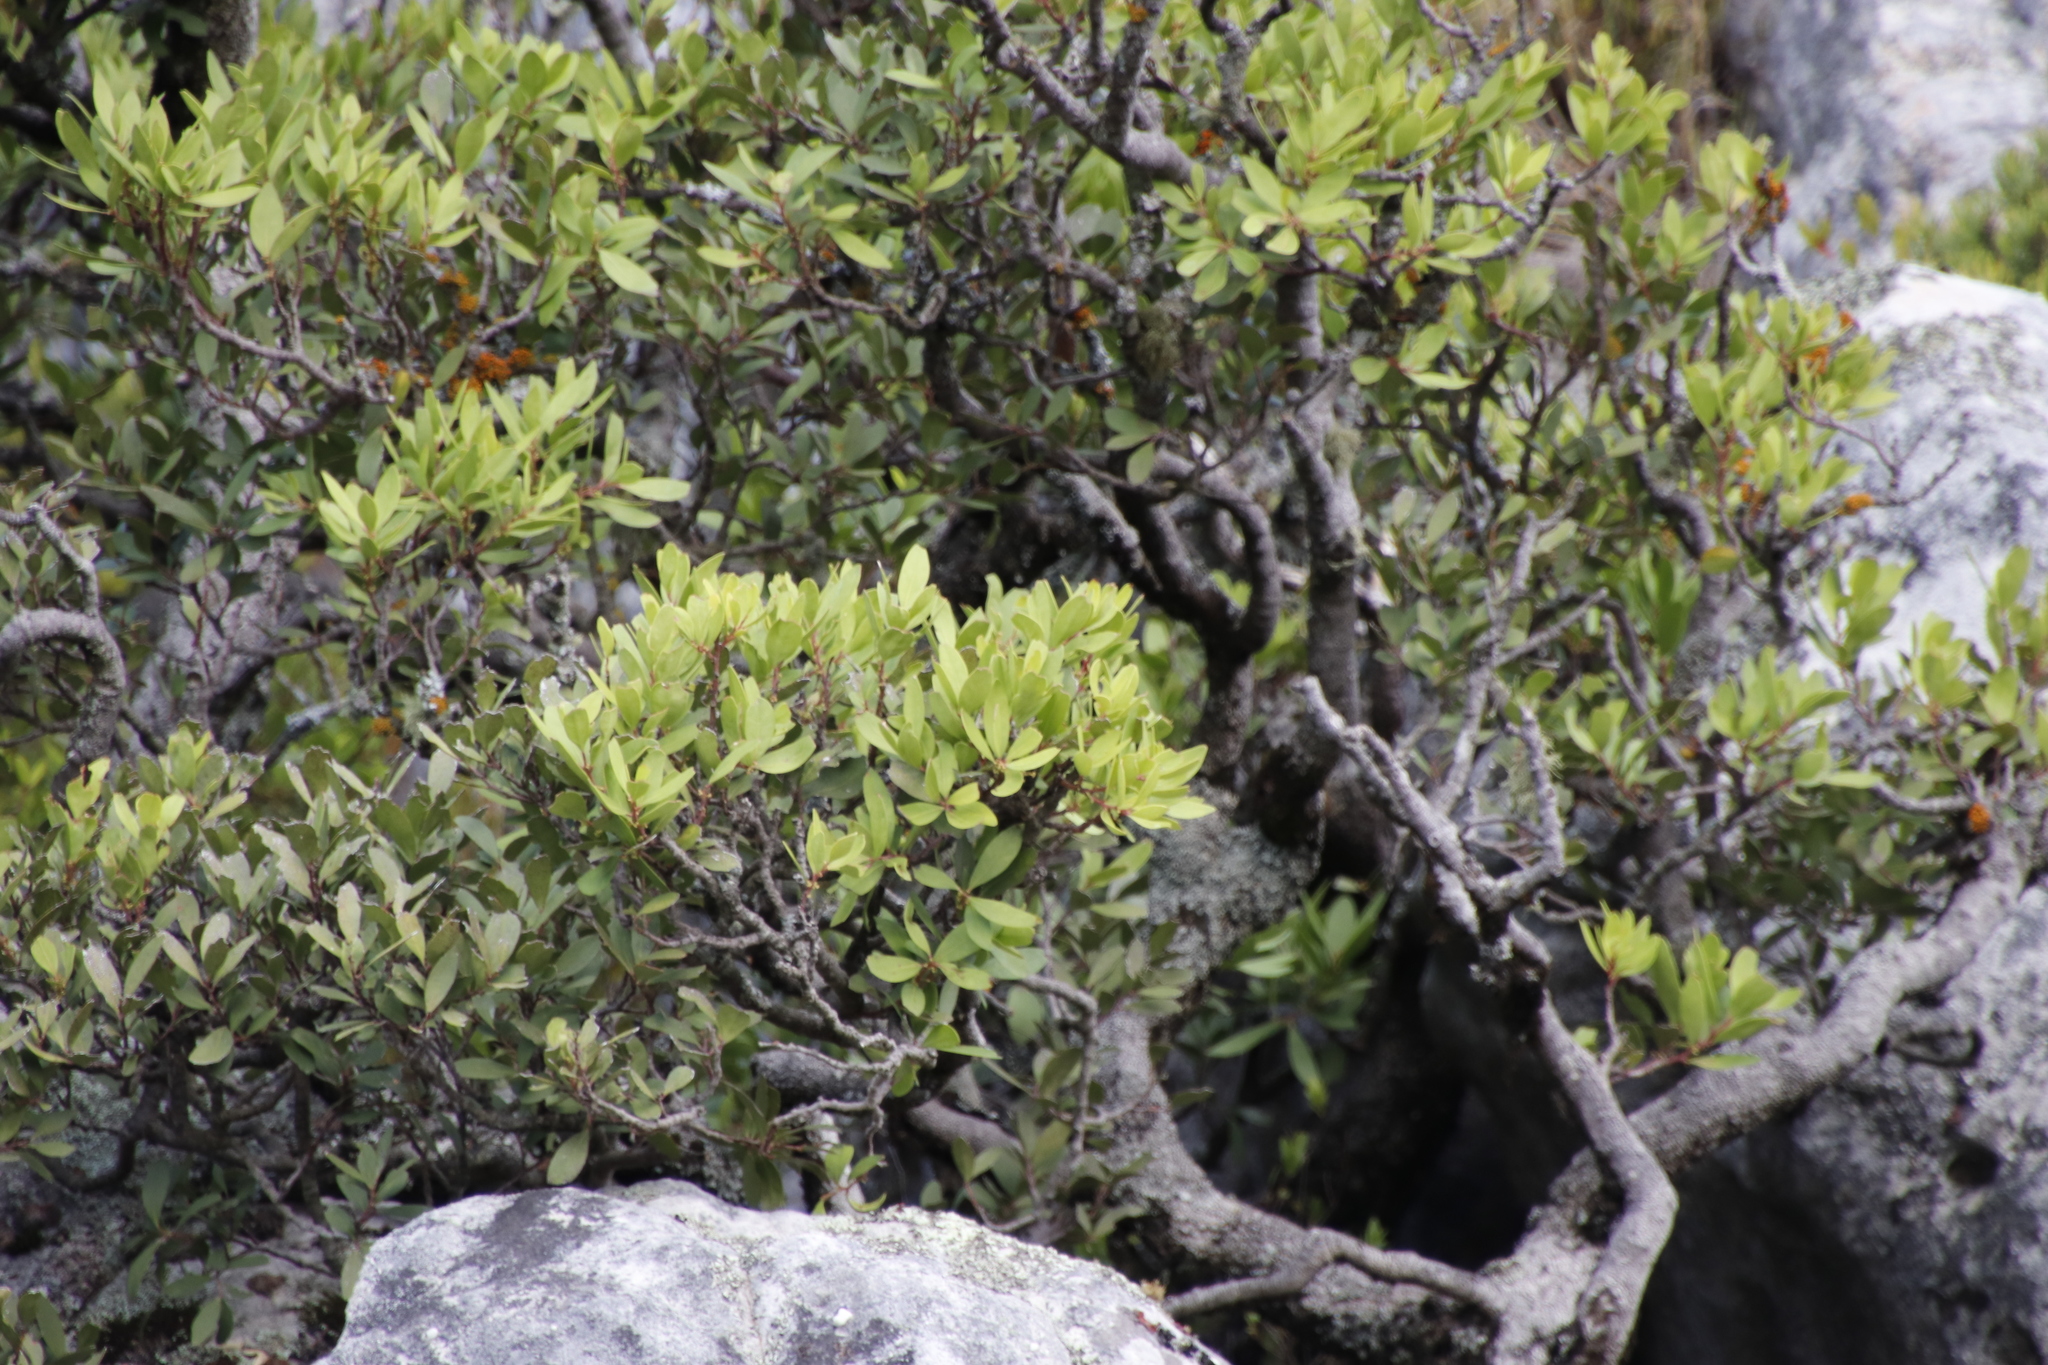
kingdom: Plantae
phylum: Tracheophyta
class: Magnoliopsida
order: Celastrales
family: Celastraceae
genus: Gymnosporia
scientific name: Gymnosporia laurina
